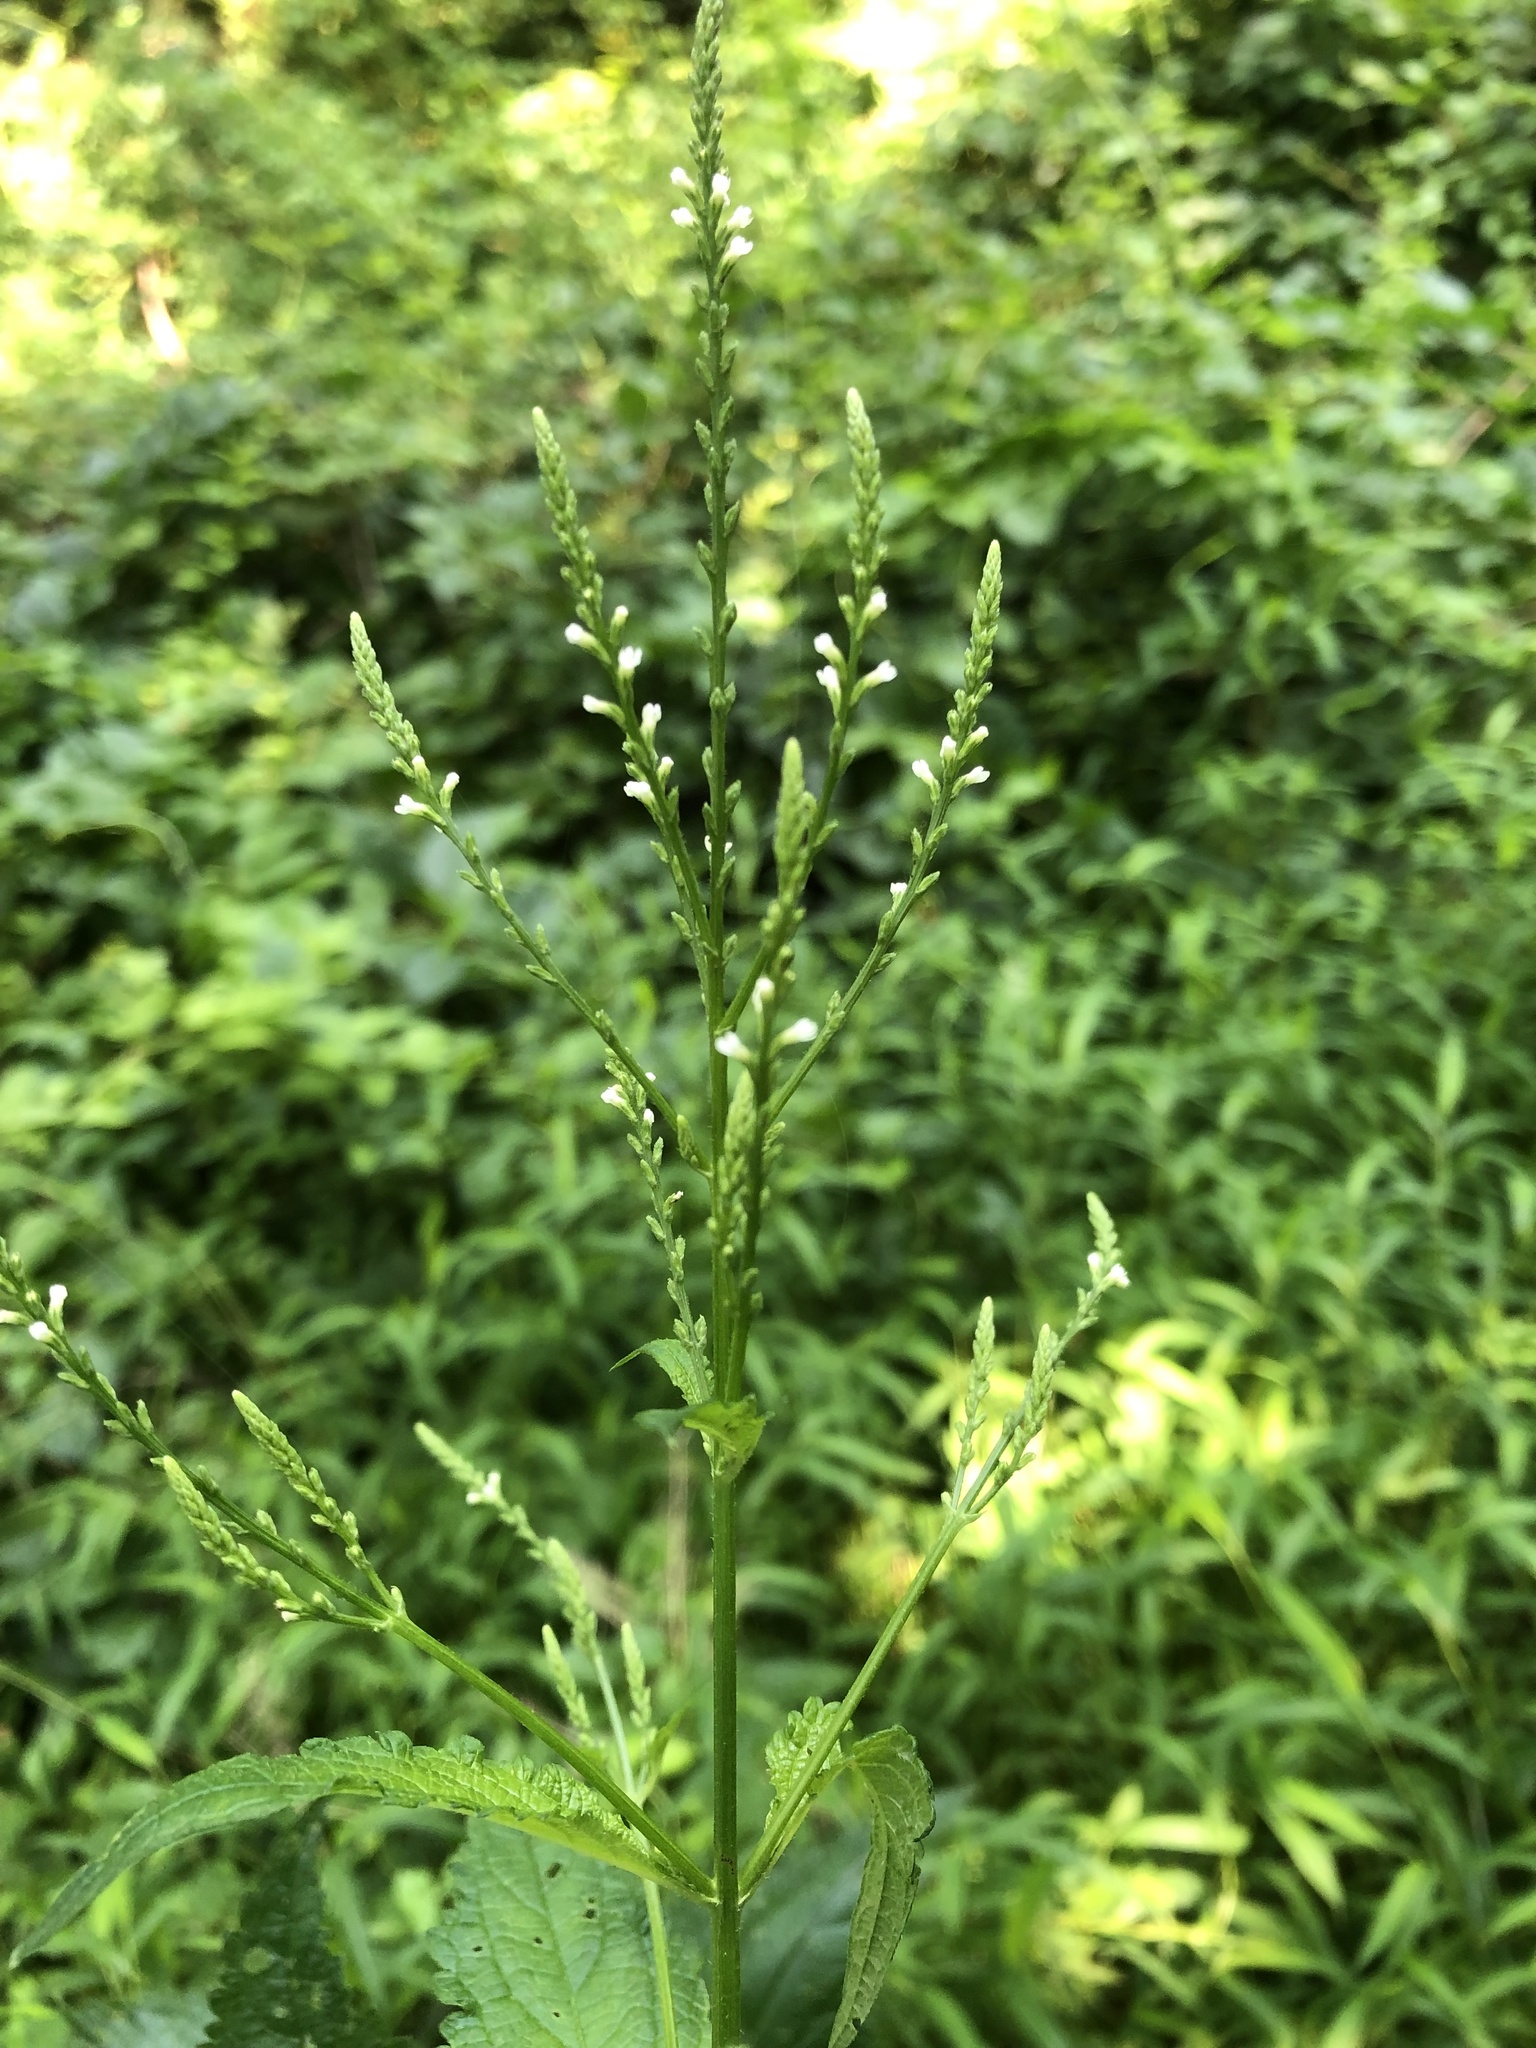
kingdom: Plantae
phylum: Tracheophyta
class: Magnoliopsida
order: Lamiales
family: Verbenaceae
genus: Verbena
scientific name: Verbena urticifolia
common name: Nettle-leaved vervain
